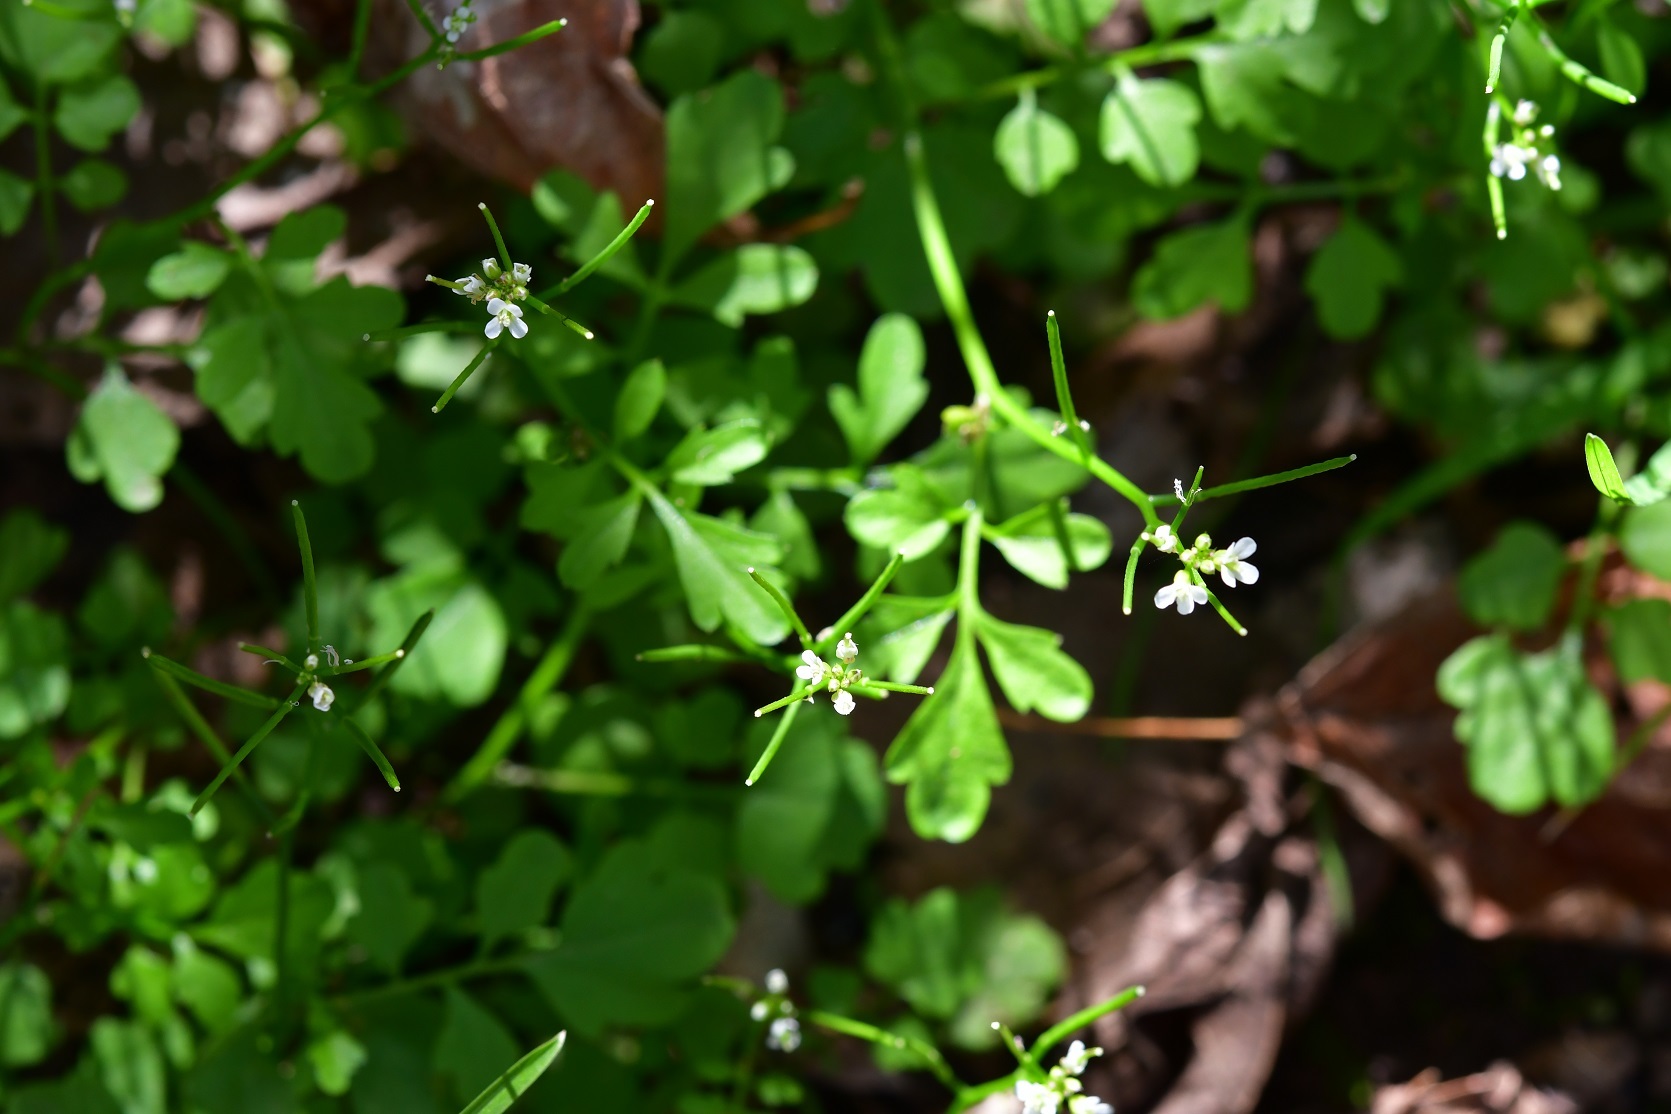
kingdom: Plantae
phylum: Tracheophyta
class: Magnoliopsida
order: Brassicales
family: Brassicaceae
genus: Cardamine
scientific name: Cardamine occulta
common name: Asian wavy bittercress
